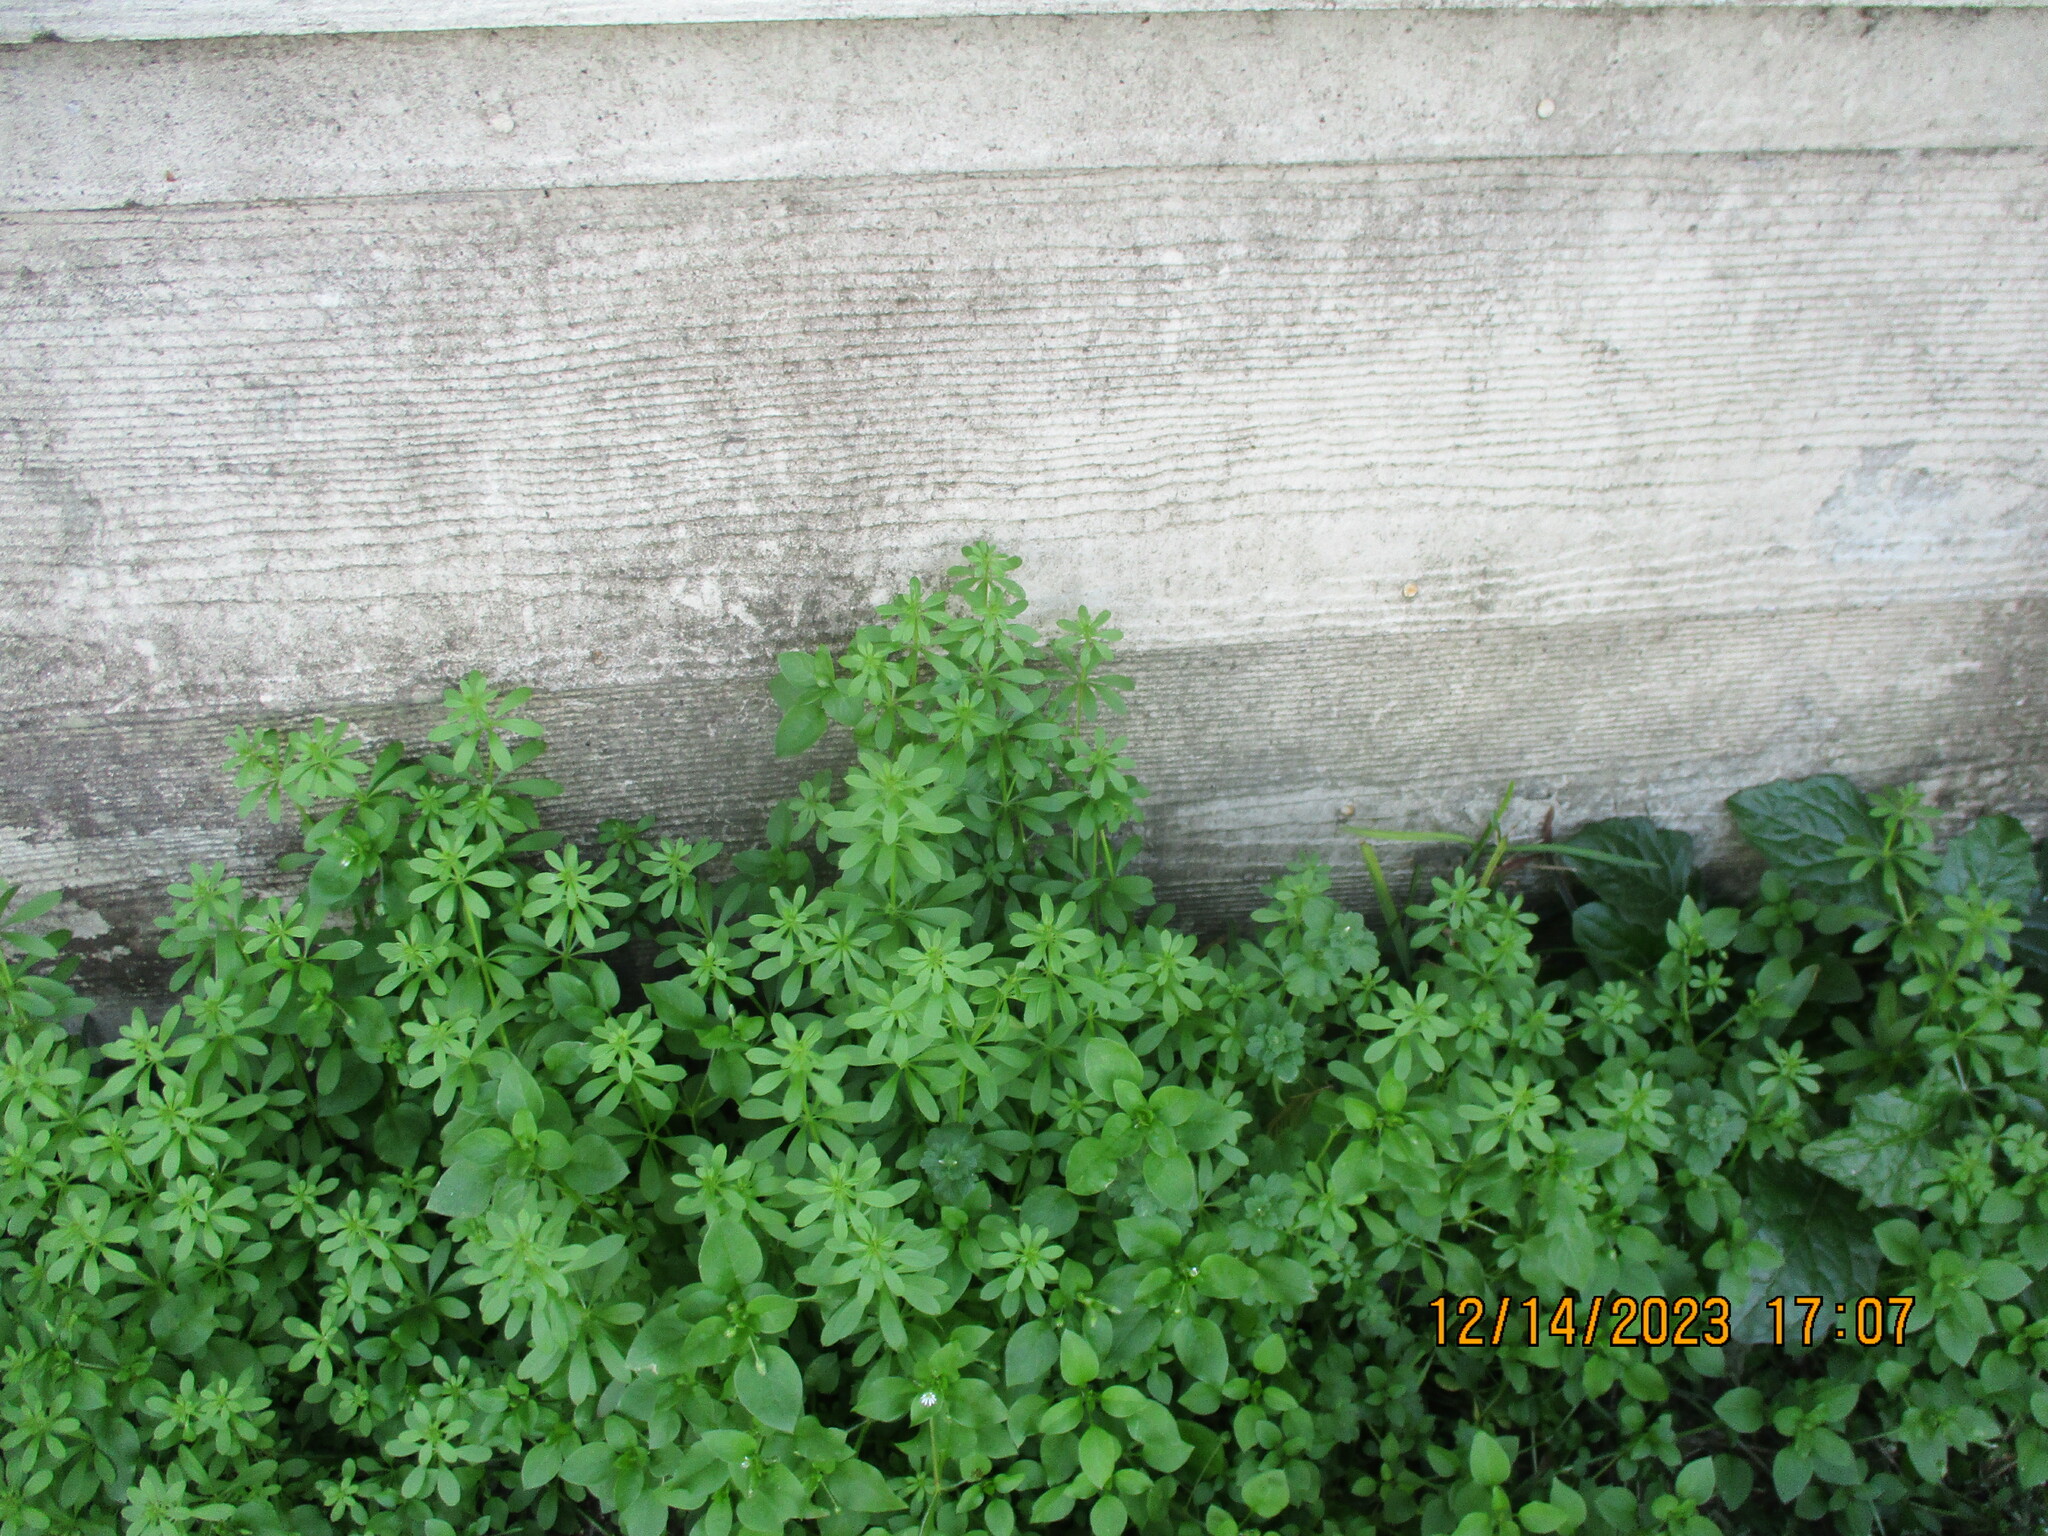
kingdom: Plantae
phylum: Tracheophyta
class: Magnoliopsida
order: Gentianales
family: Rubiaceae
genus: Galium
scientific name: Galium aparine
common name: Cleavers
